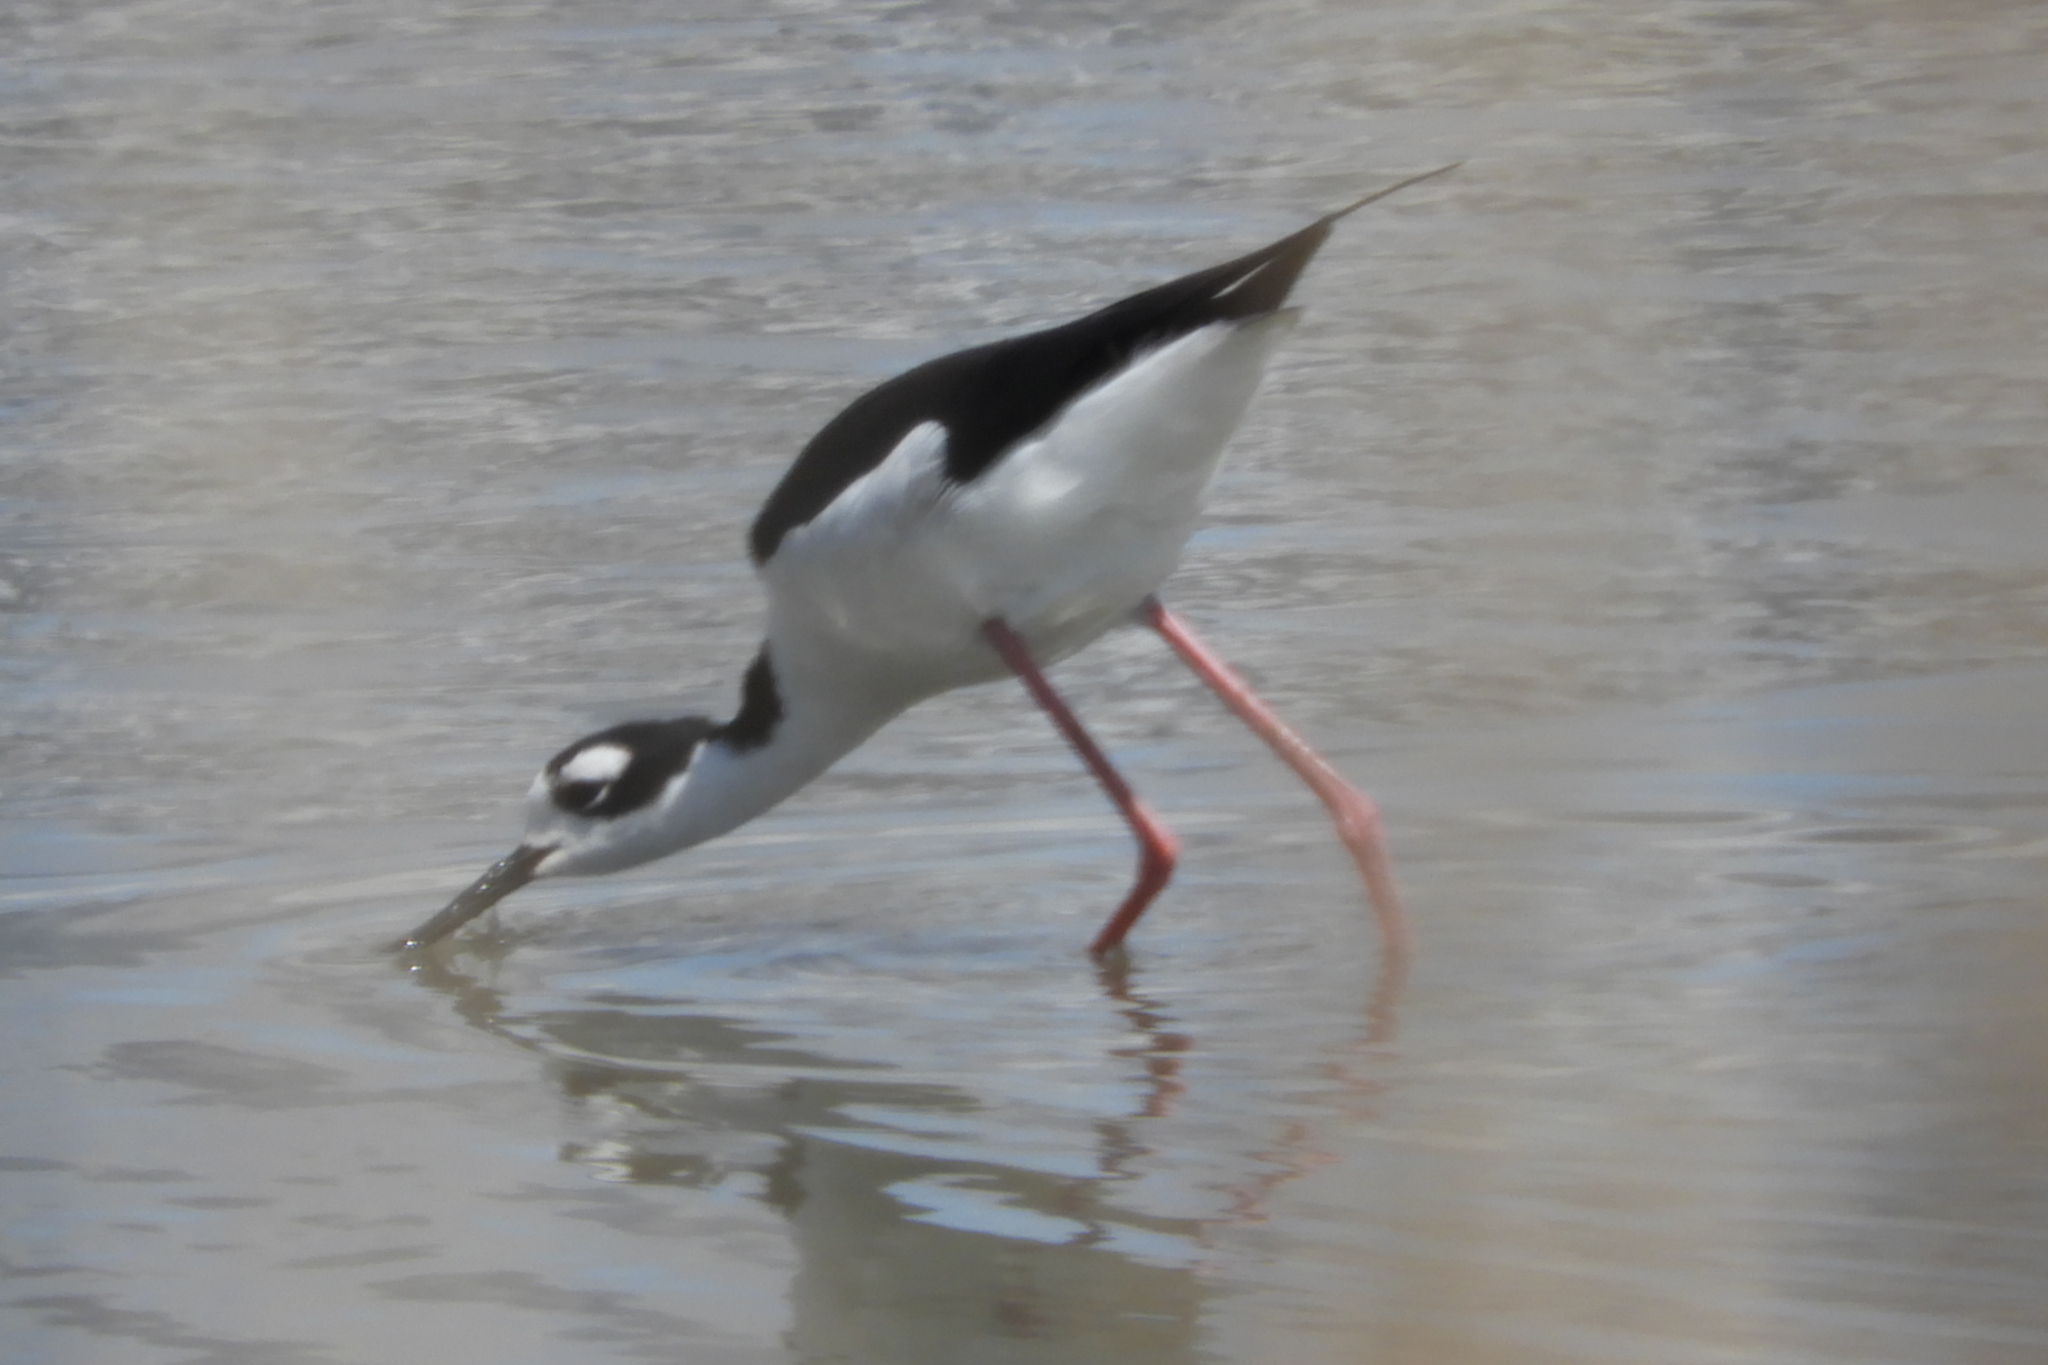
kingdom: Animalia
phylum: Chordata
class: Aves
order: Charadriiformes
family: Recurvirostridae
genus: Himantopus
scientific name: Himantopus mexicanus
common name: Black-necked stilt
